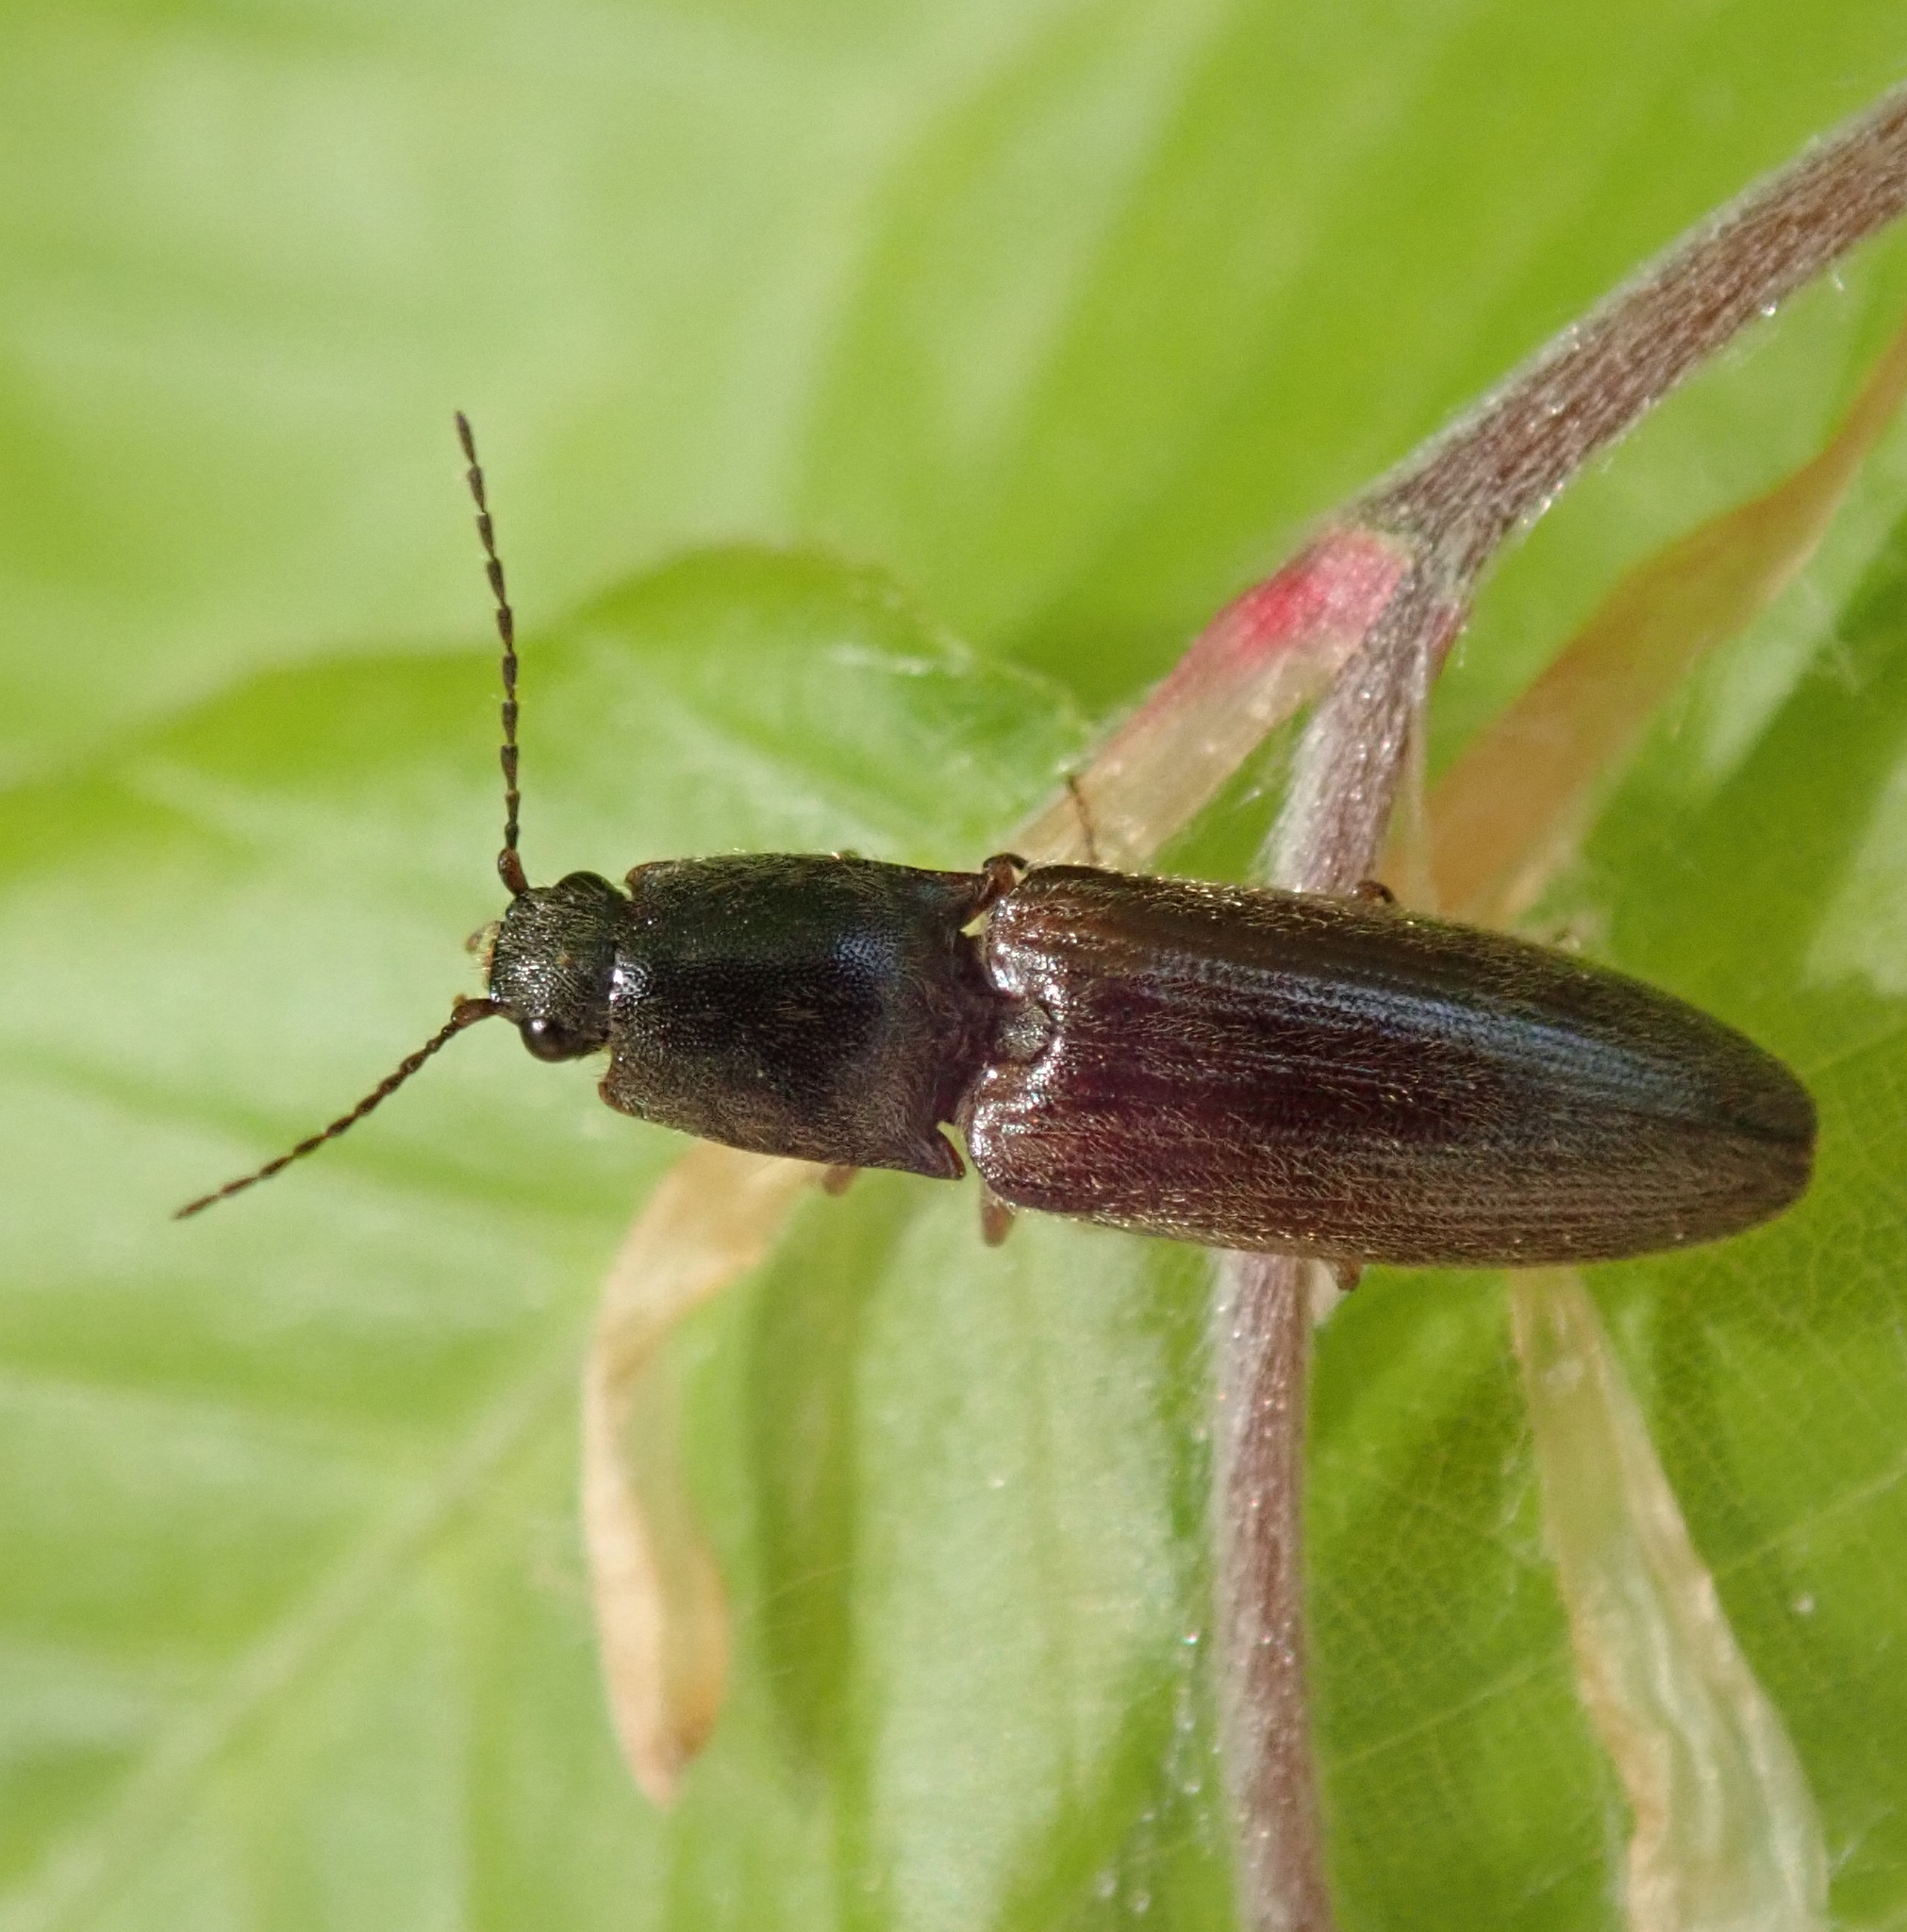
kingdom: Animalia
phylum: Arthropoda
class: Insecta
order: Coleoptera
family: Elateridae
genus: Athous
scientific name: Athous haemorrhoidalis
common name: Red-brown click beetle
